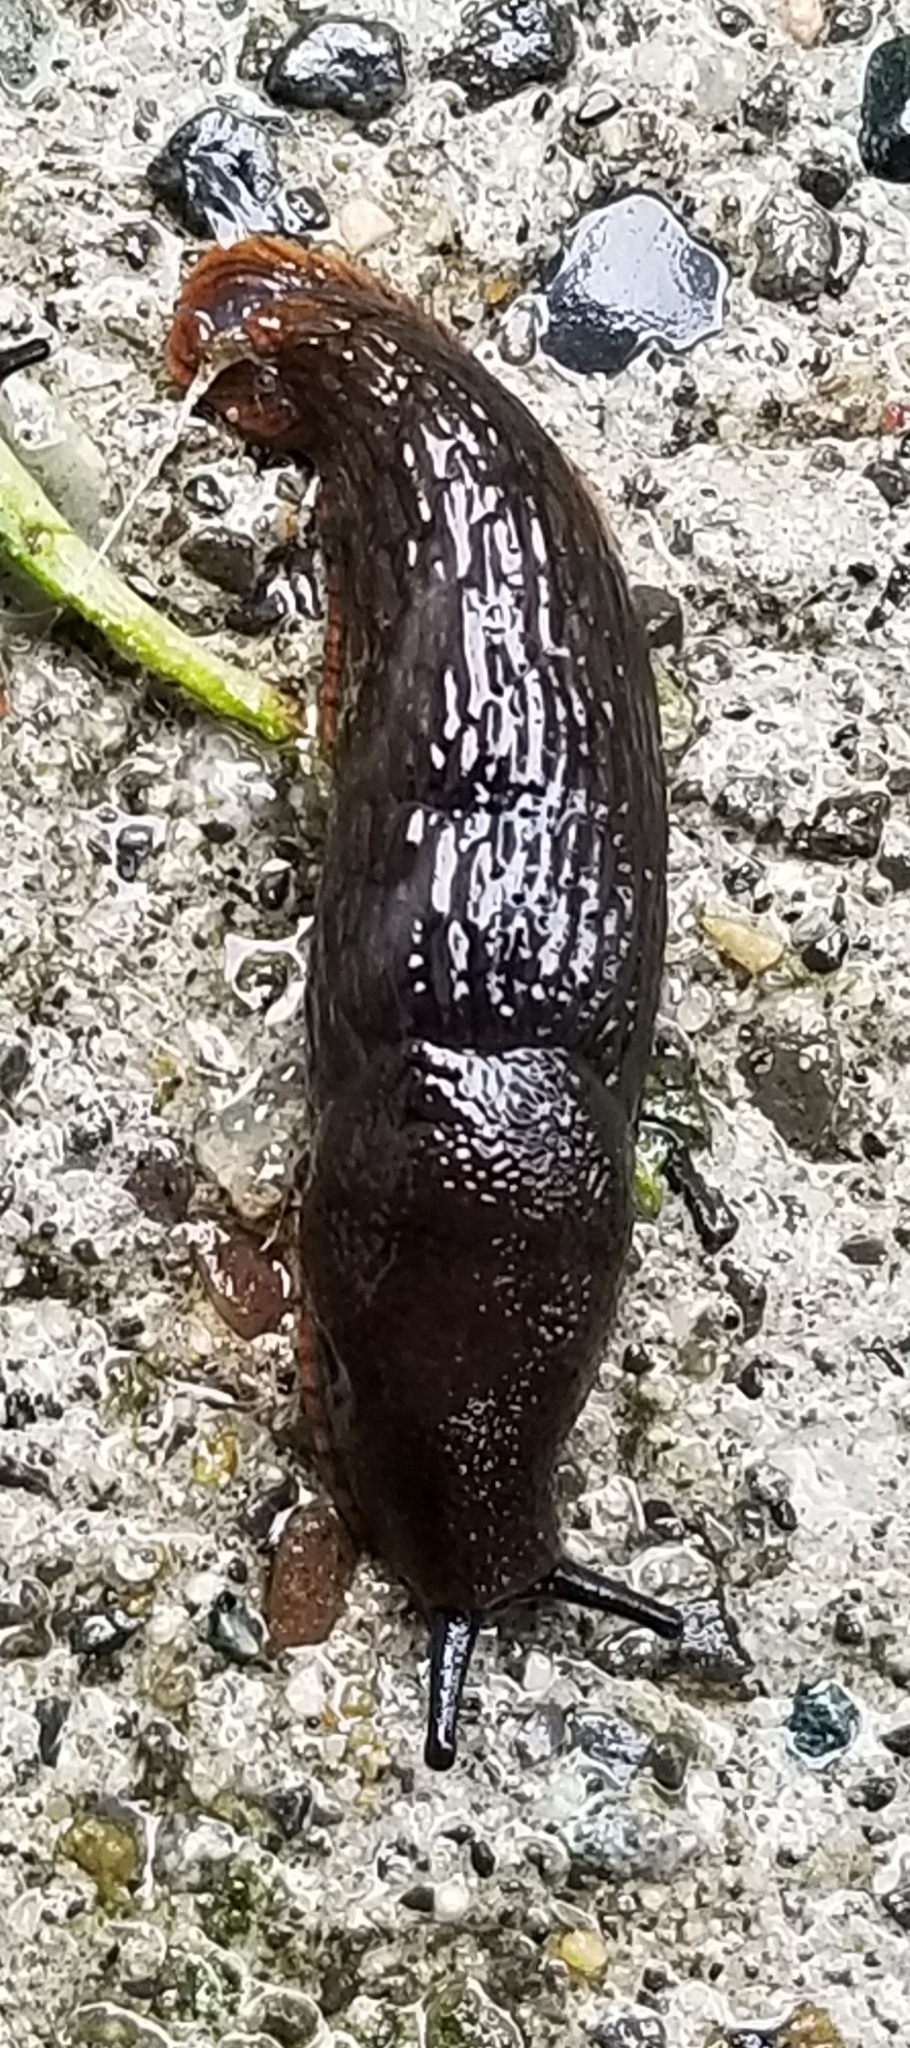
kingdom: Animalia
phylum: Mollusca
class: Gastropoda
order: Stylommatophora
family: Arionidae
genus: Arion
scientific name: Arion
